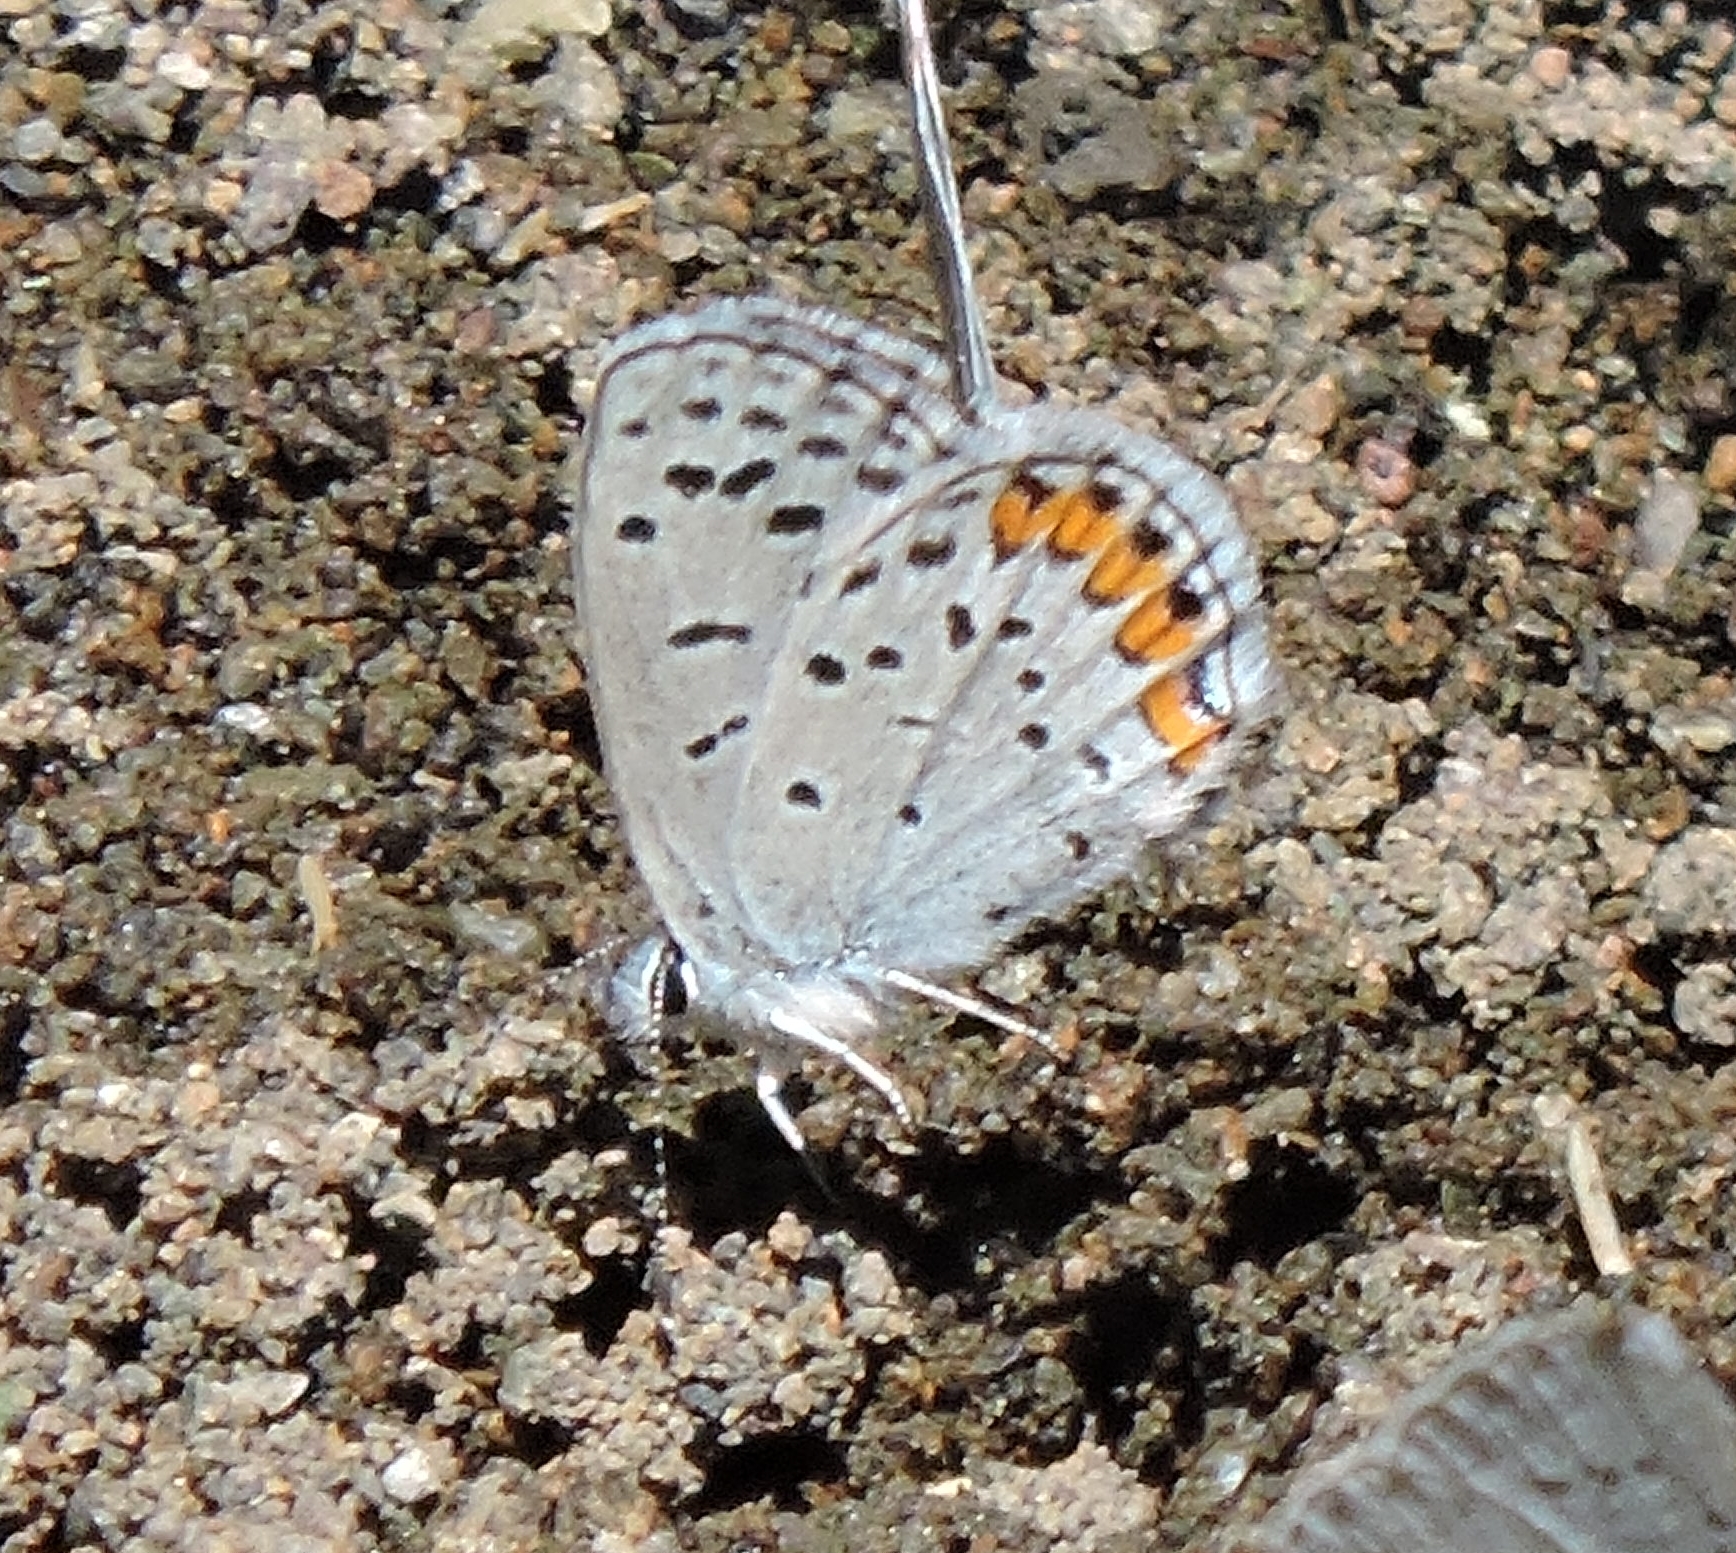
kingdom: Animalia
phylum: Arthropoda
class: Insecta
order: Lepidoptera
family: Lycaenidae
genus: Icaricia
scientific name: Icaricia acmon
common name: Acmon blue
